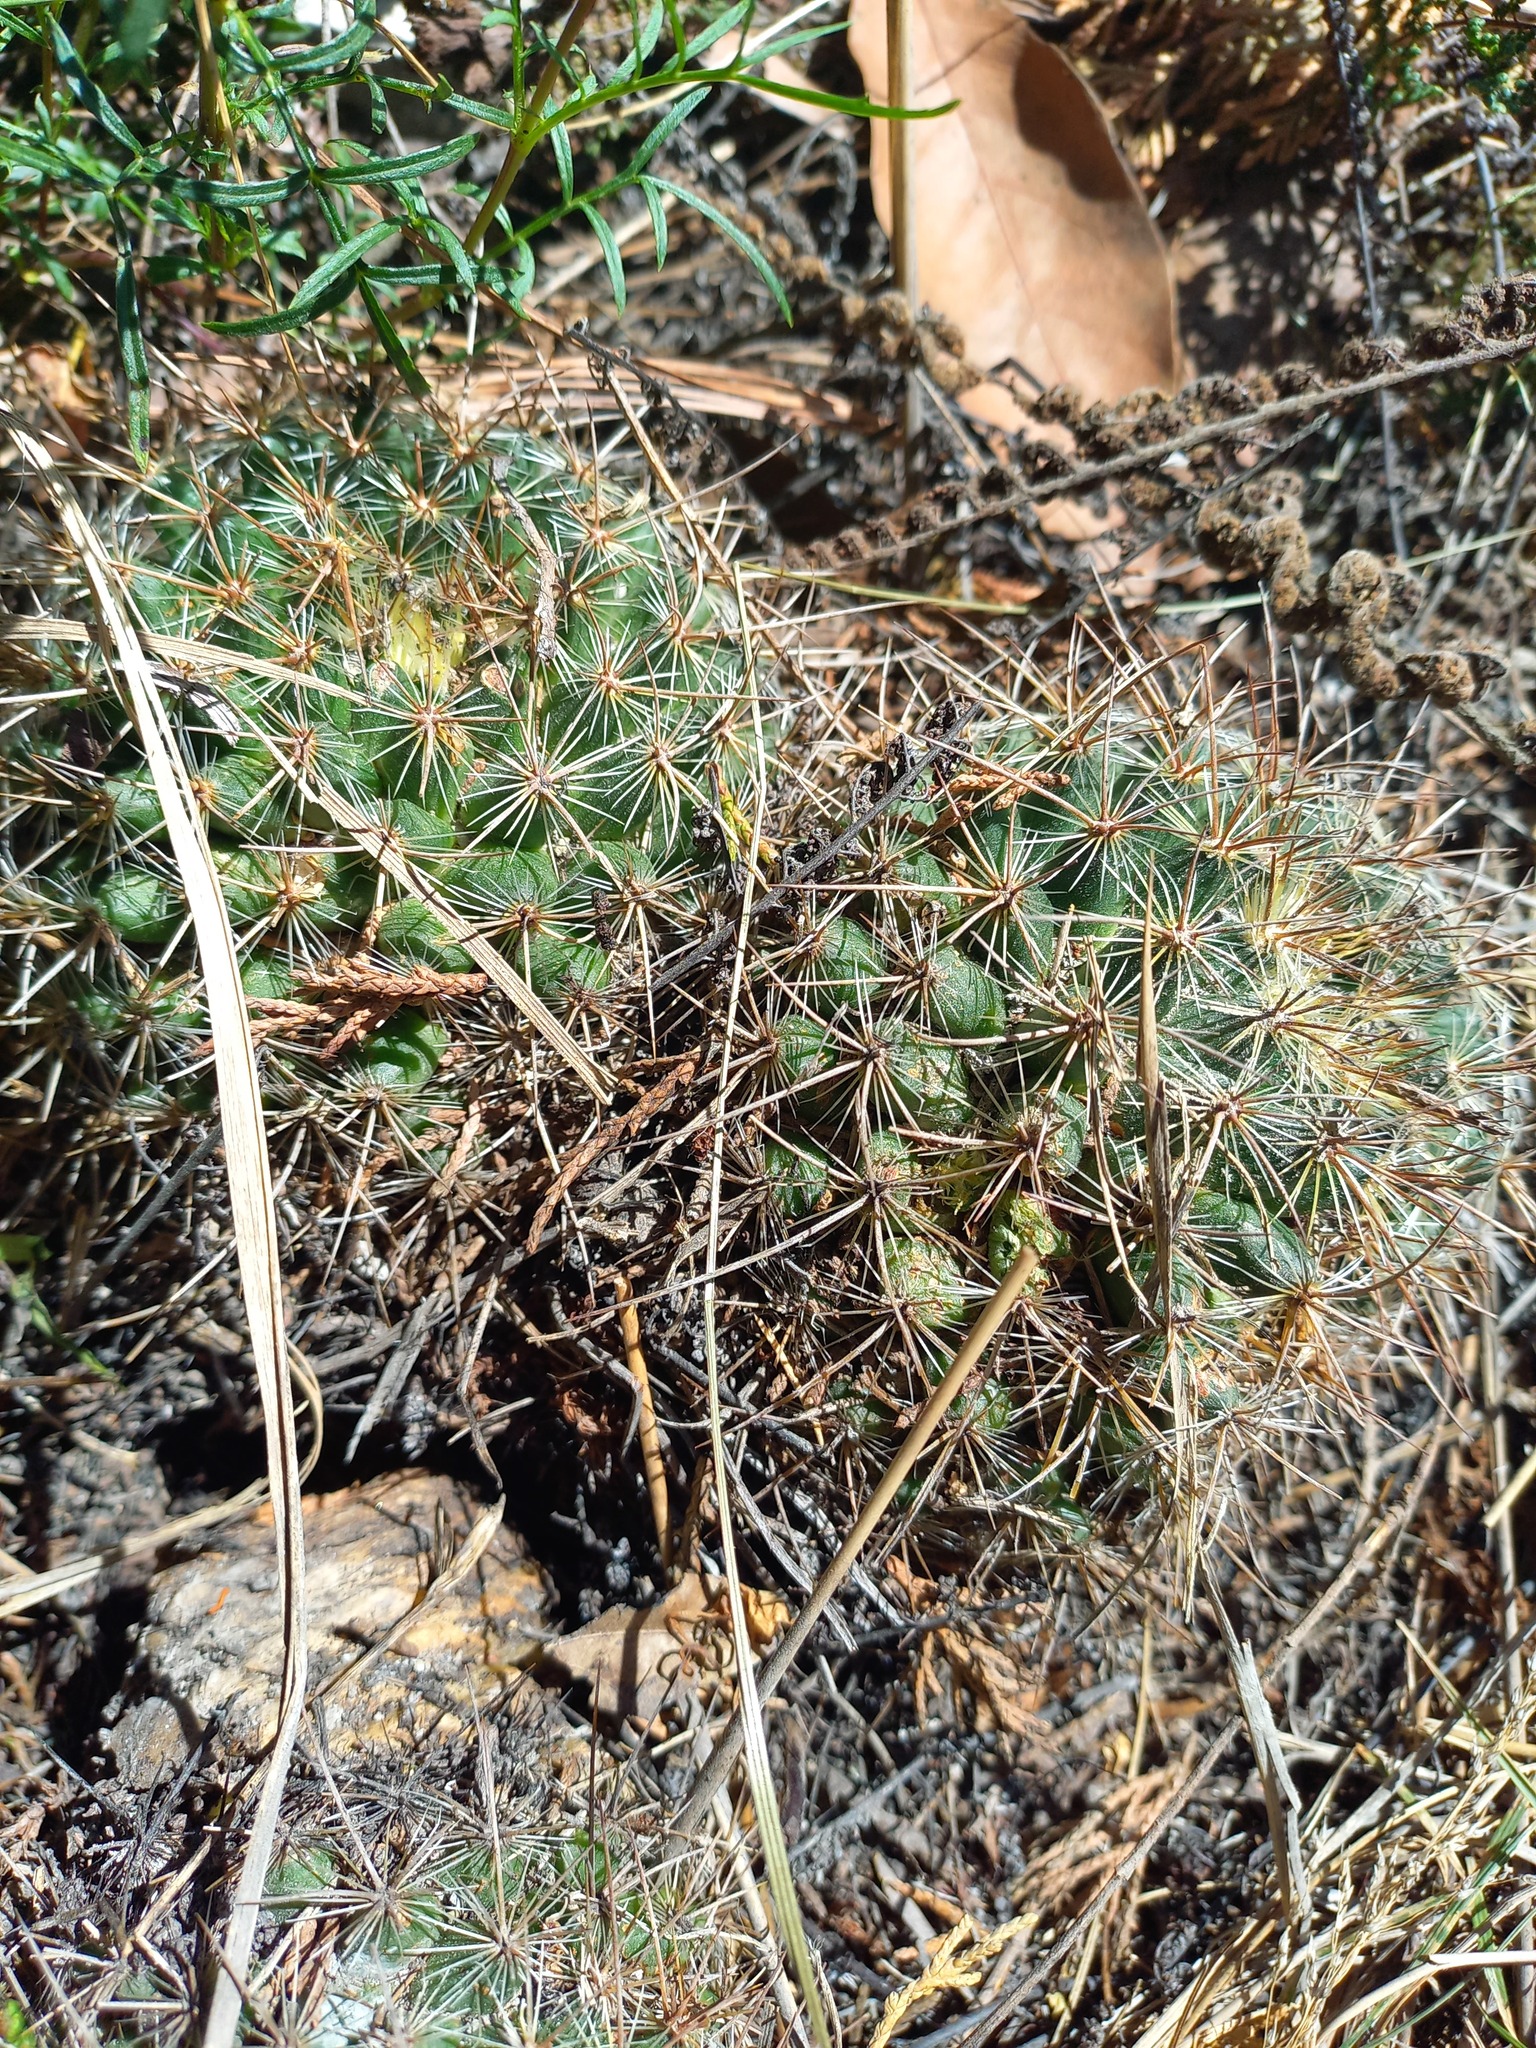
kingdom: Plantae
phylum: Tracheophyta
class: Magnoliopsida
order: Caryophyllales
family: Cactaceae
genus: Mammillaria
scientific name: Mammillaria discolor
